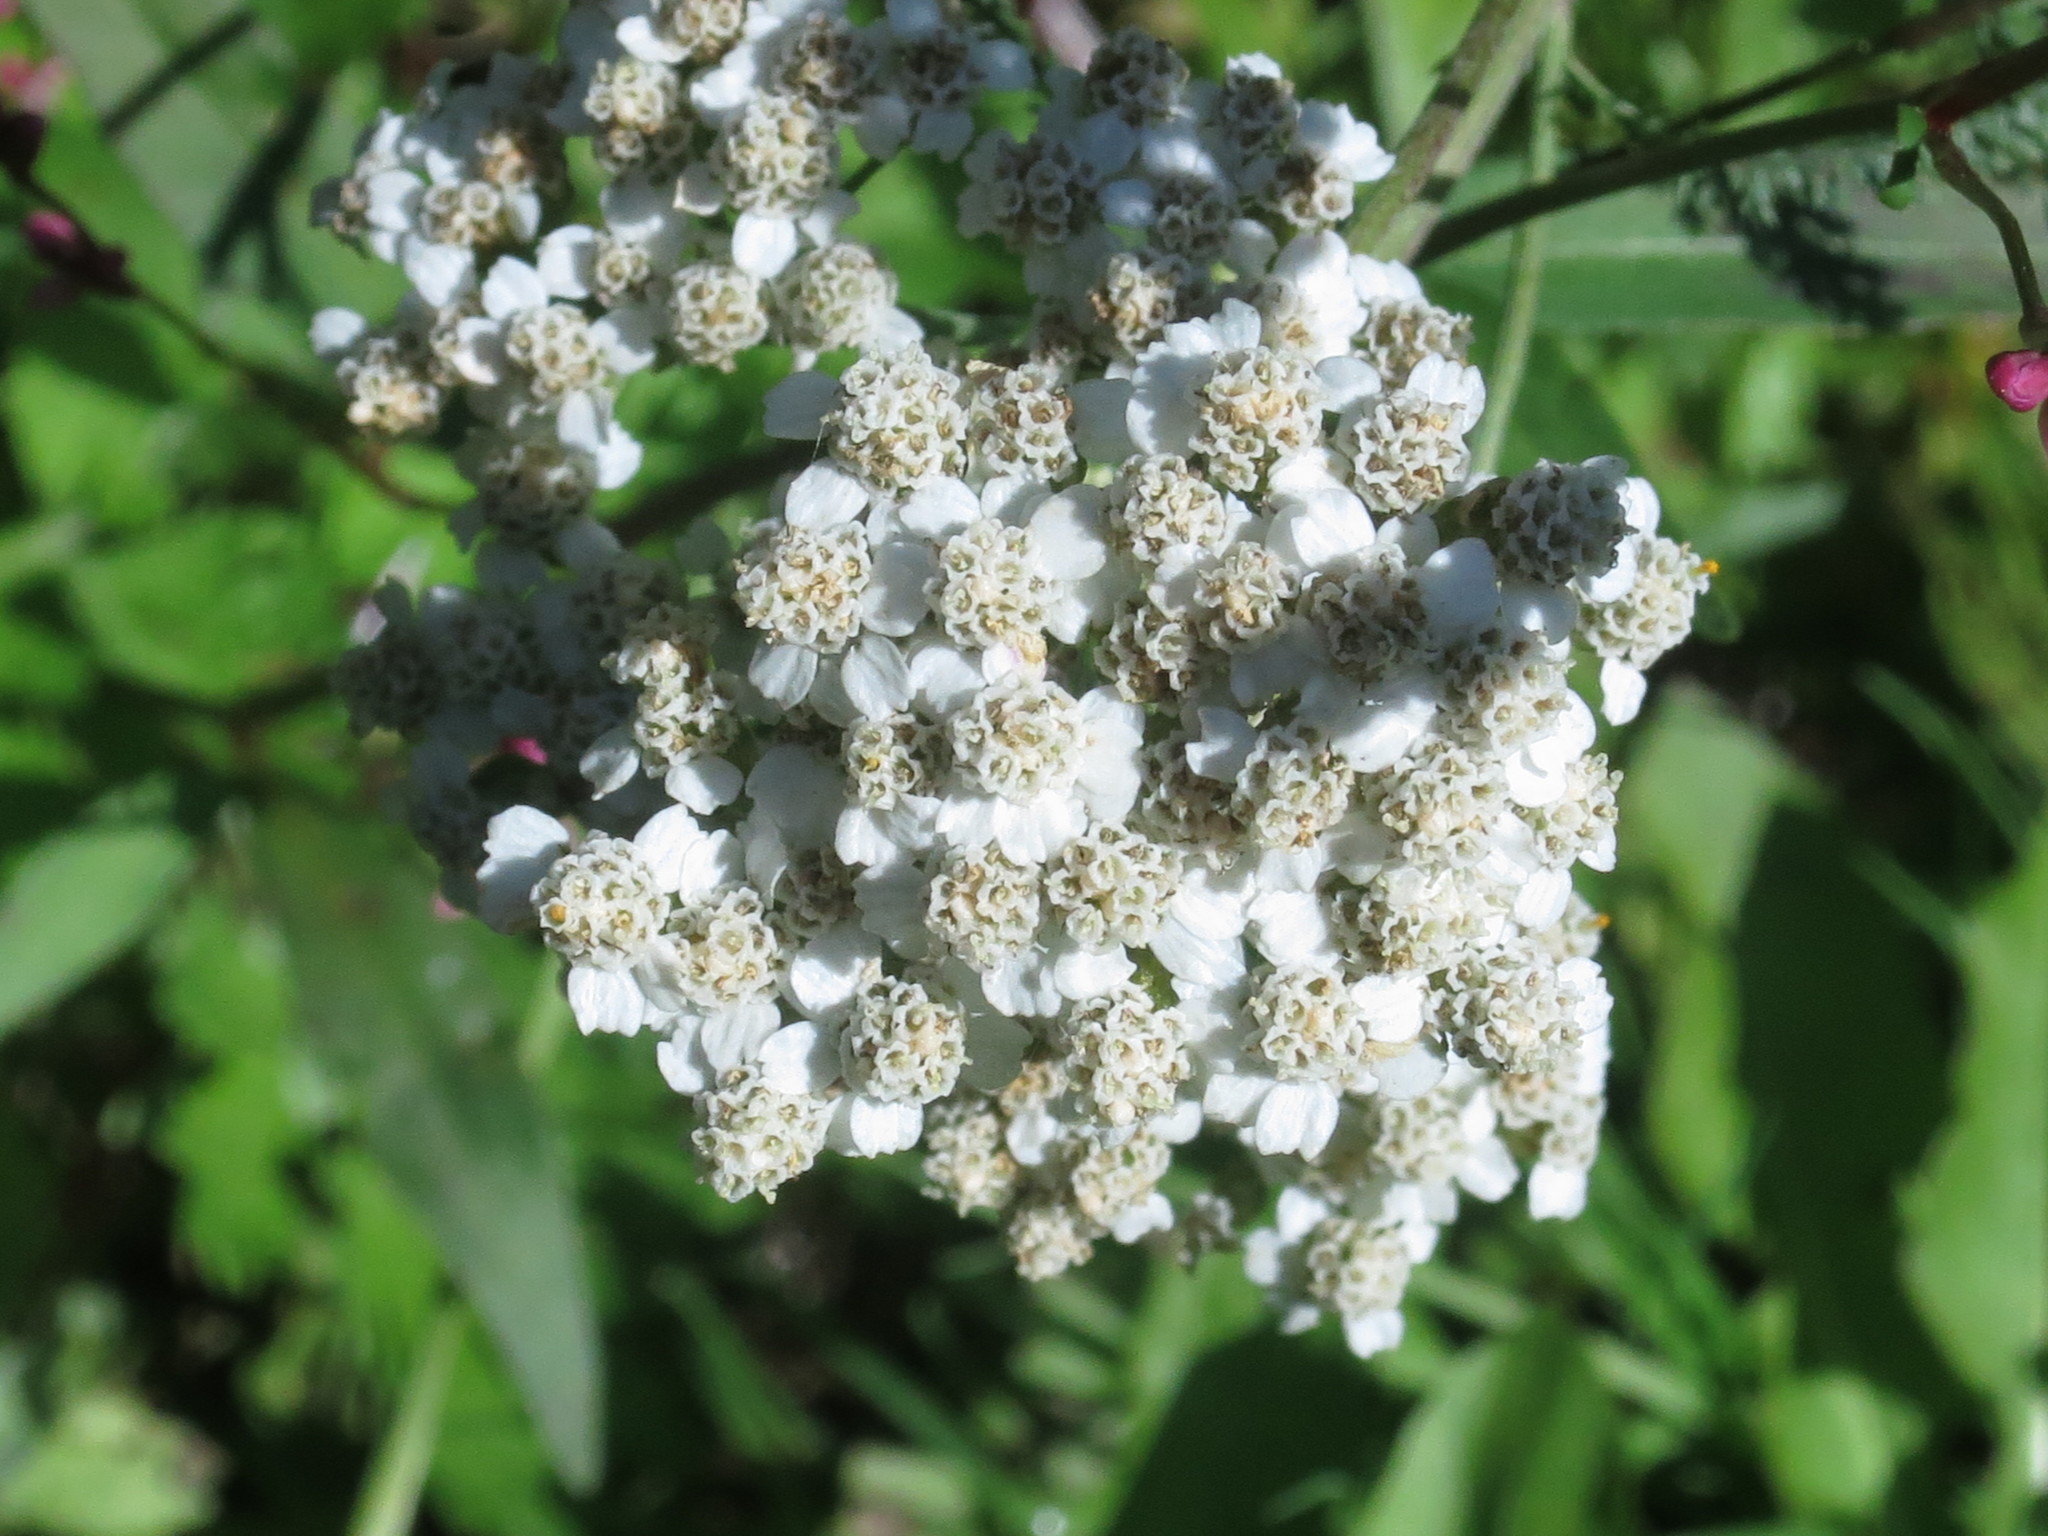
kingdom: Plantae
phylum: Tracheophyta
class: Magnoliopsida
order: Asterales
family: Asteraceae
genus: Achillea
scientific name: Achillea millefolium
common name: Yarrow
